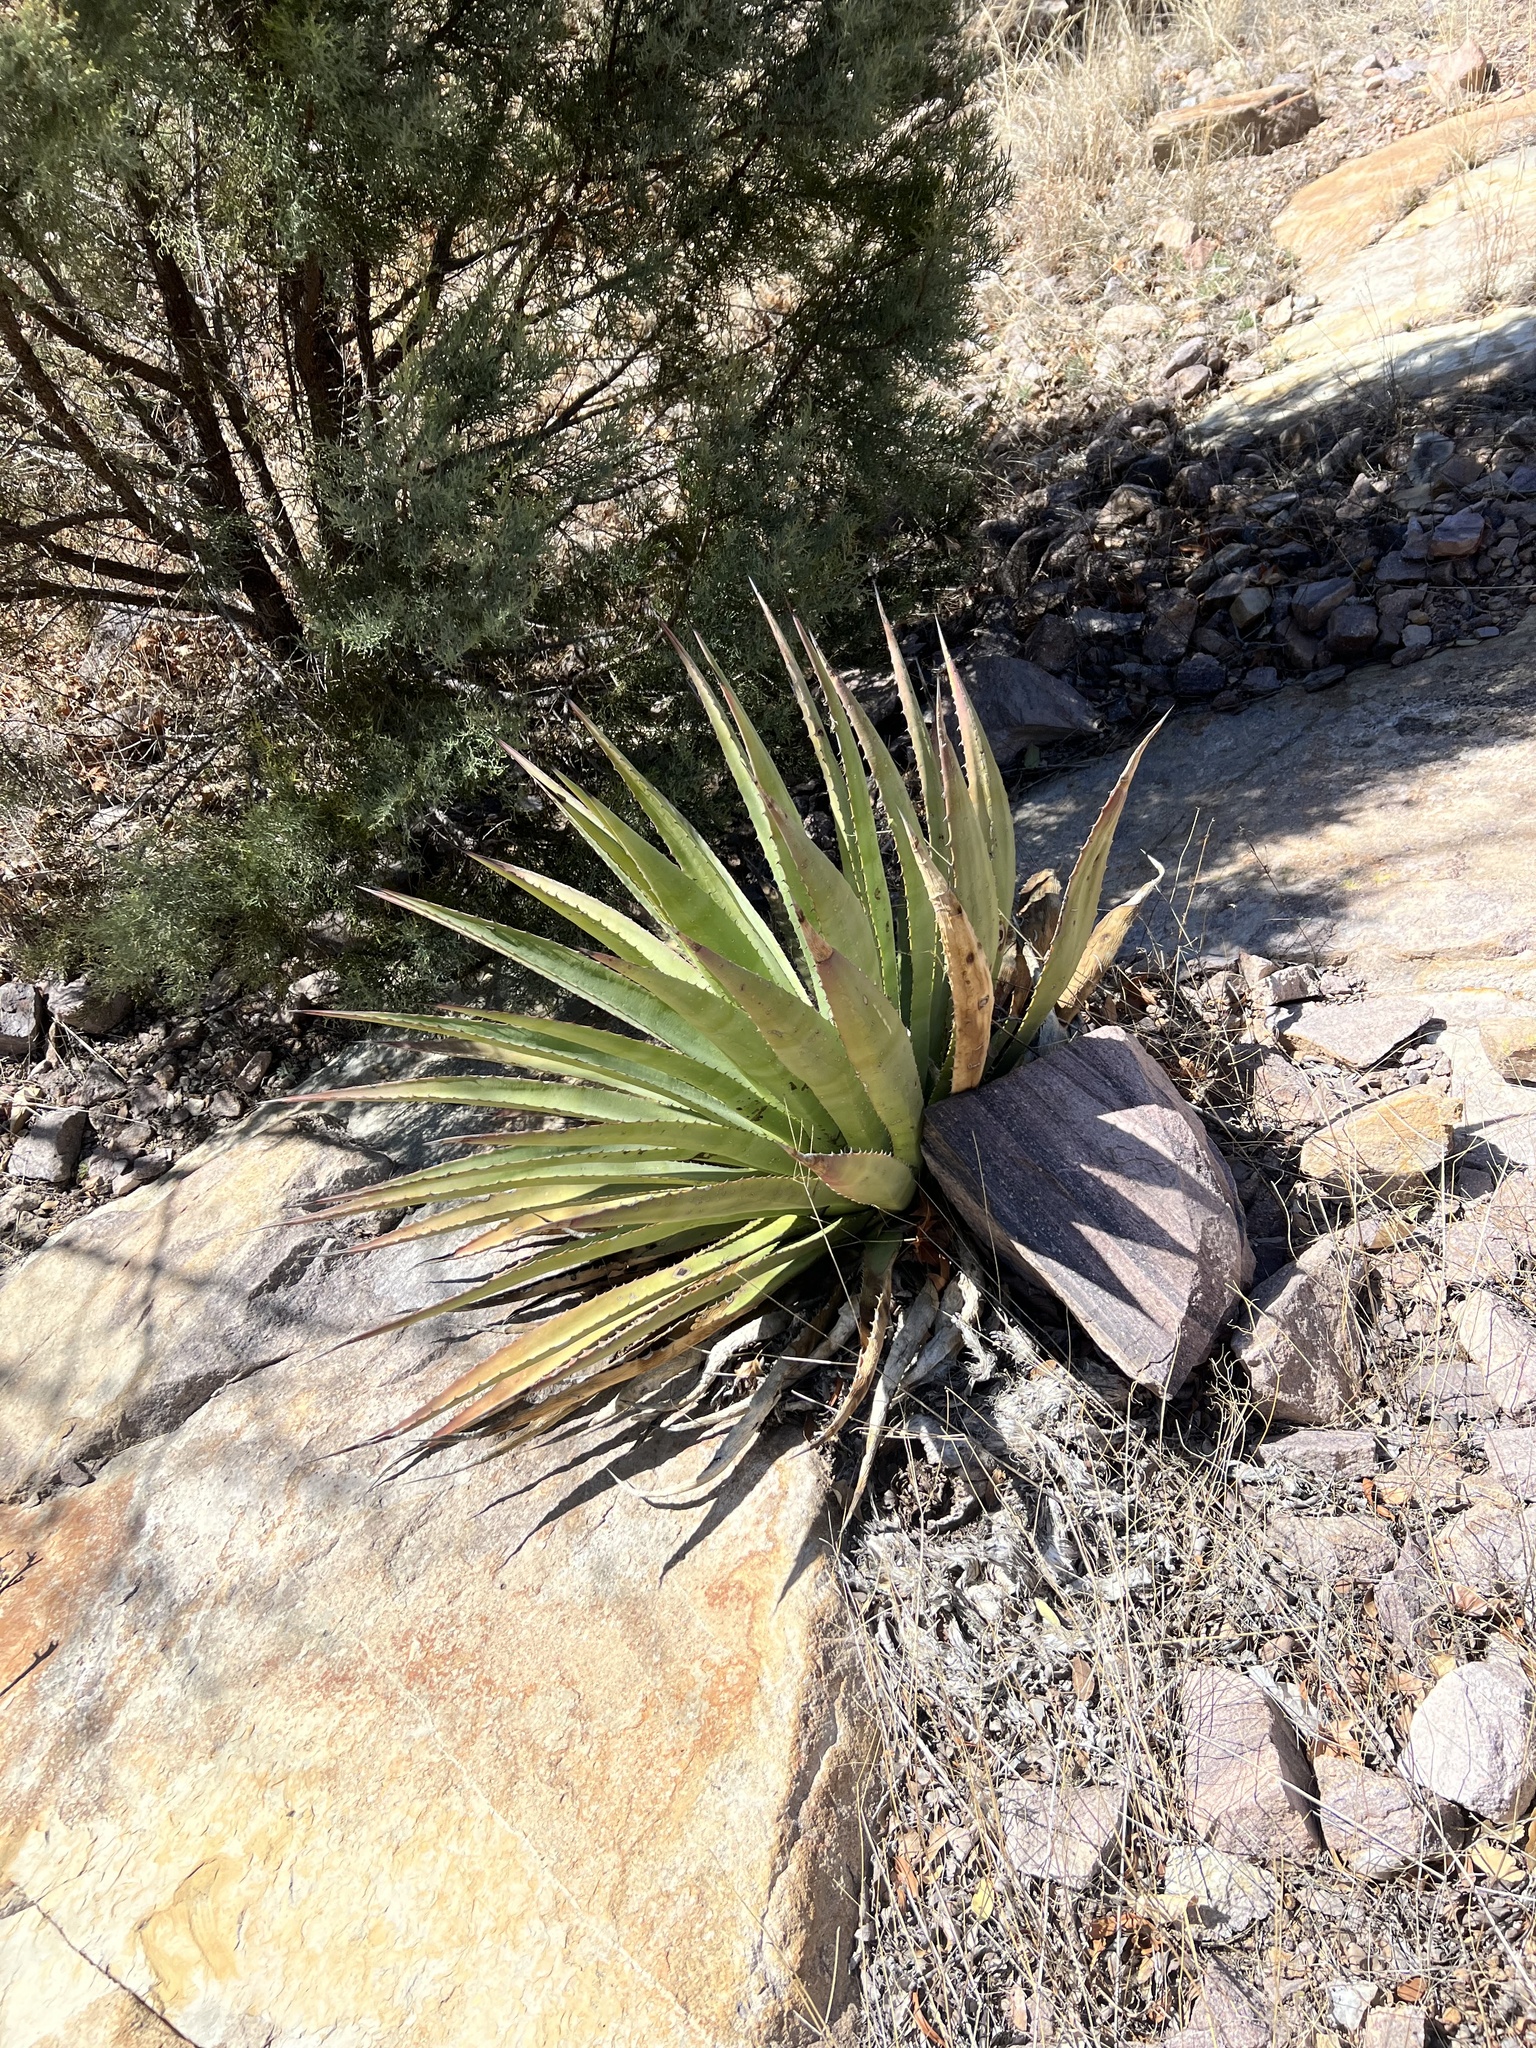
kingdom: Plantae
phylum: Tracheophyta
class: Liliopsida
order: Asparagales
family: Asparagaceae
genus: Agave
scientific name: Agave palmeri
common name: Palmer agave
